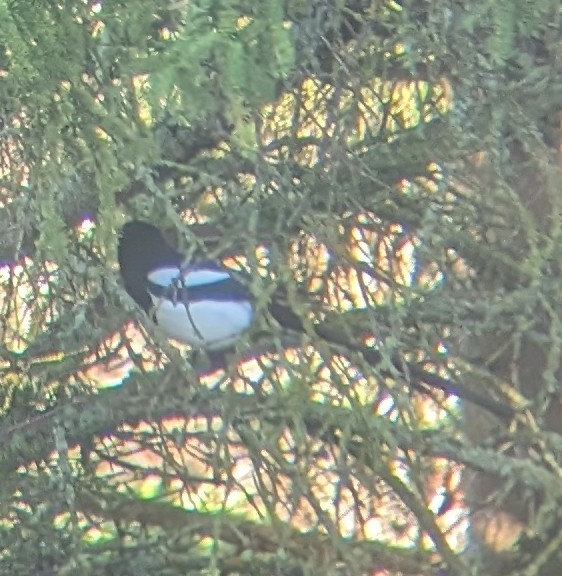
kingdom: Animalia
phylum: Chordata
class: Aves
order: Passeriformes
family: Corvidae
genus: Pica
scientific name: Pica hudsonia
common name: Black-billed magpie
